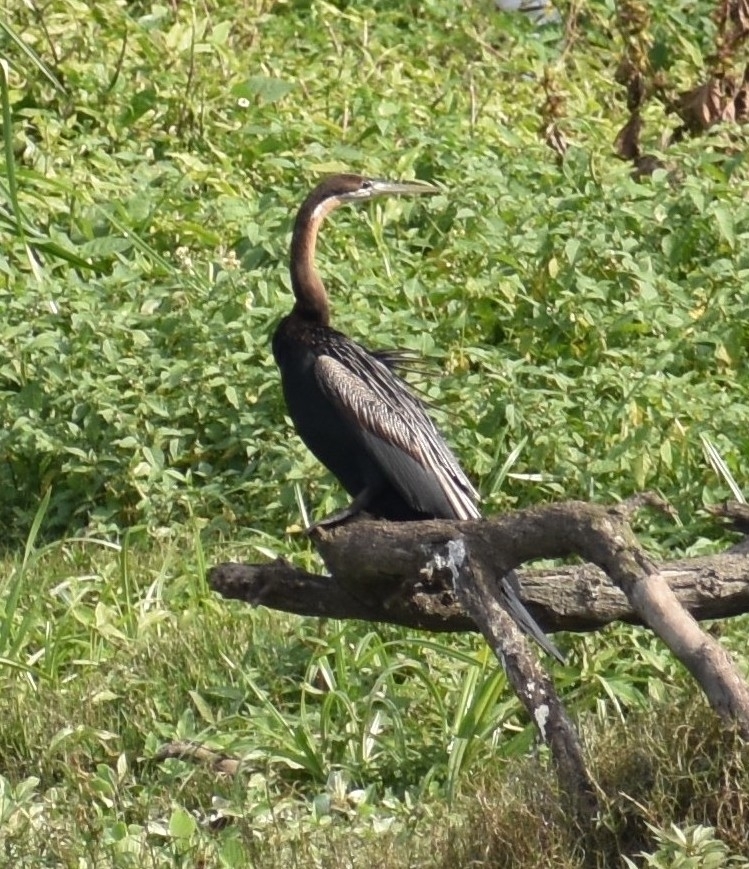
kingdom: Animalia
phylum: Chordata
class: Aves
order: Suliformes
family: Anhingidae
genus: Anhinga
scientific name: Anhinga rufa
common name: African darter
